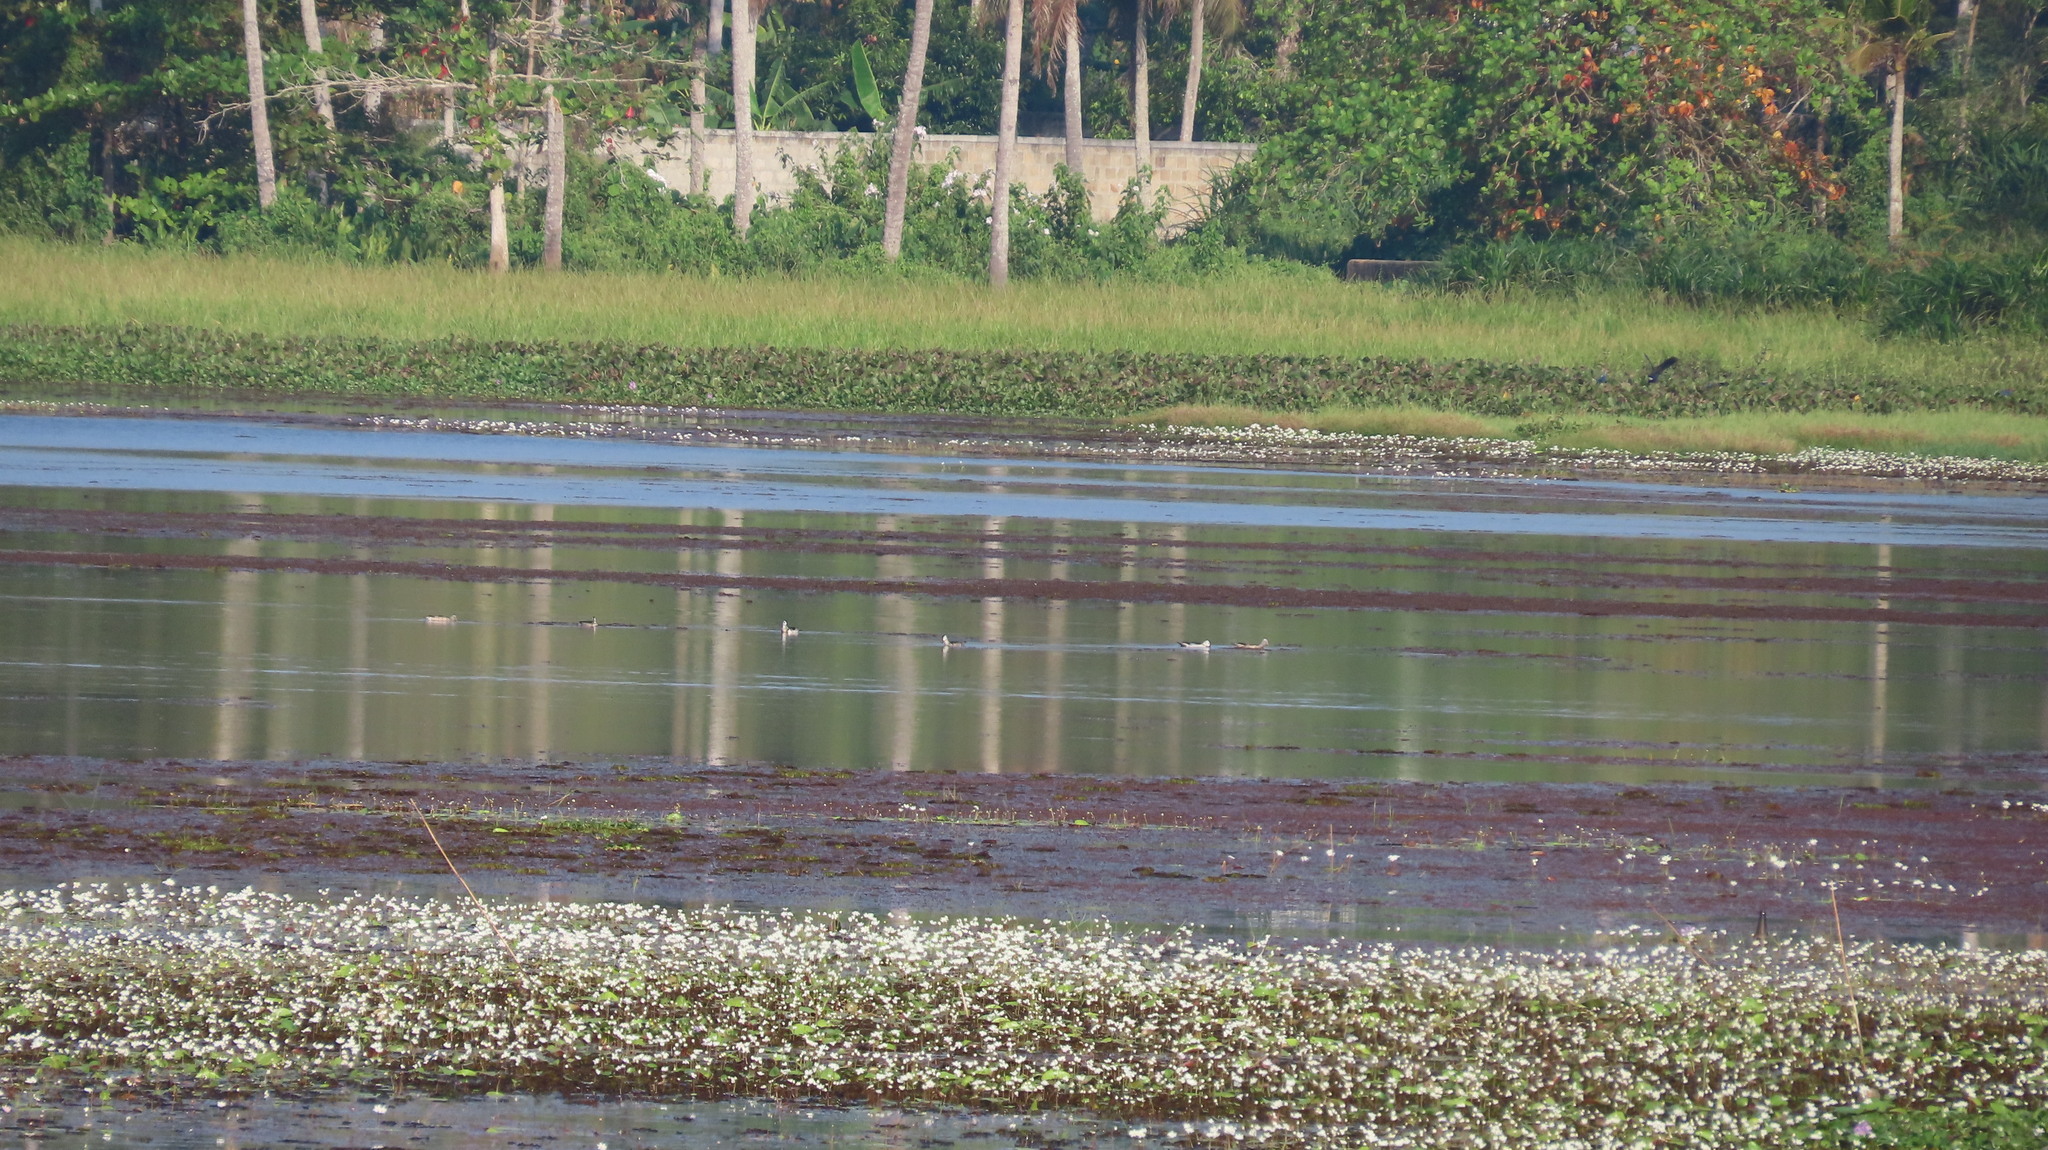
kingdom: Animalia
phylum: Chordata
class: Aves
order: Anseriformes
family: Anatidae
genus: Nettapus
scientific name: Nettapus coromandelianus
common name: Cotton pygmy-goose
